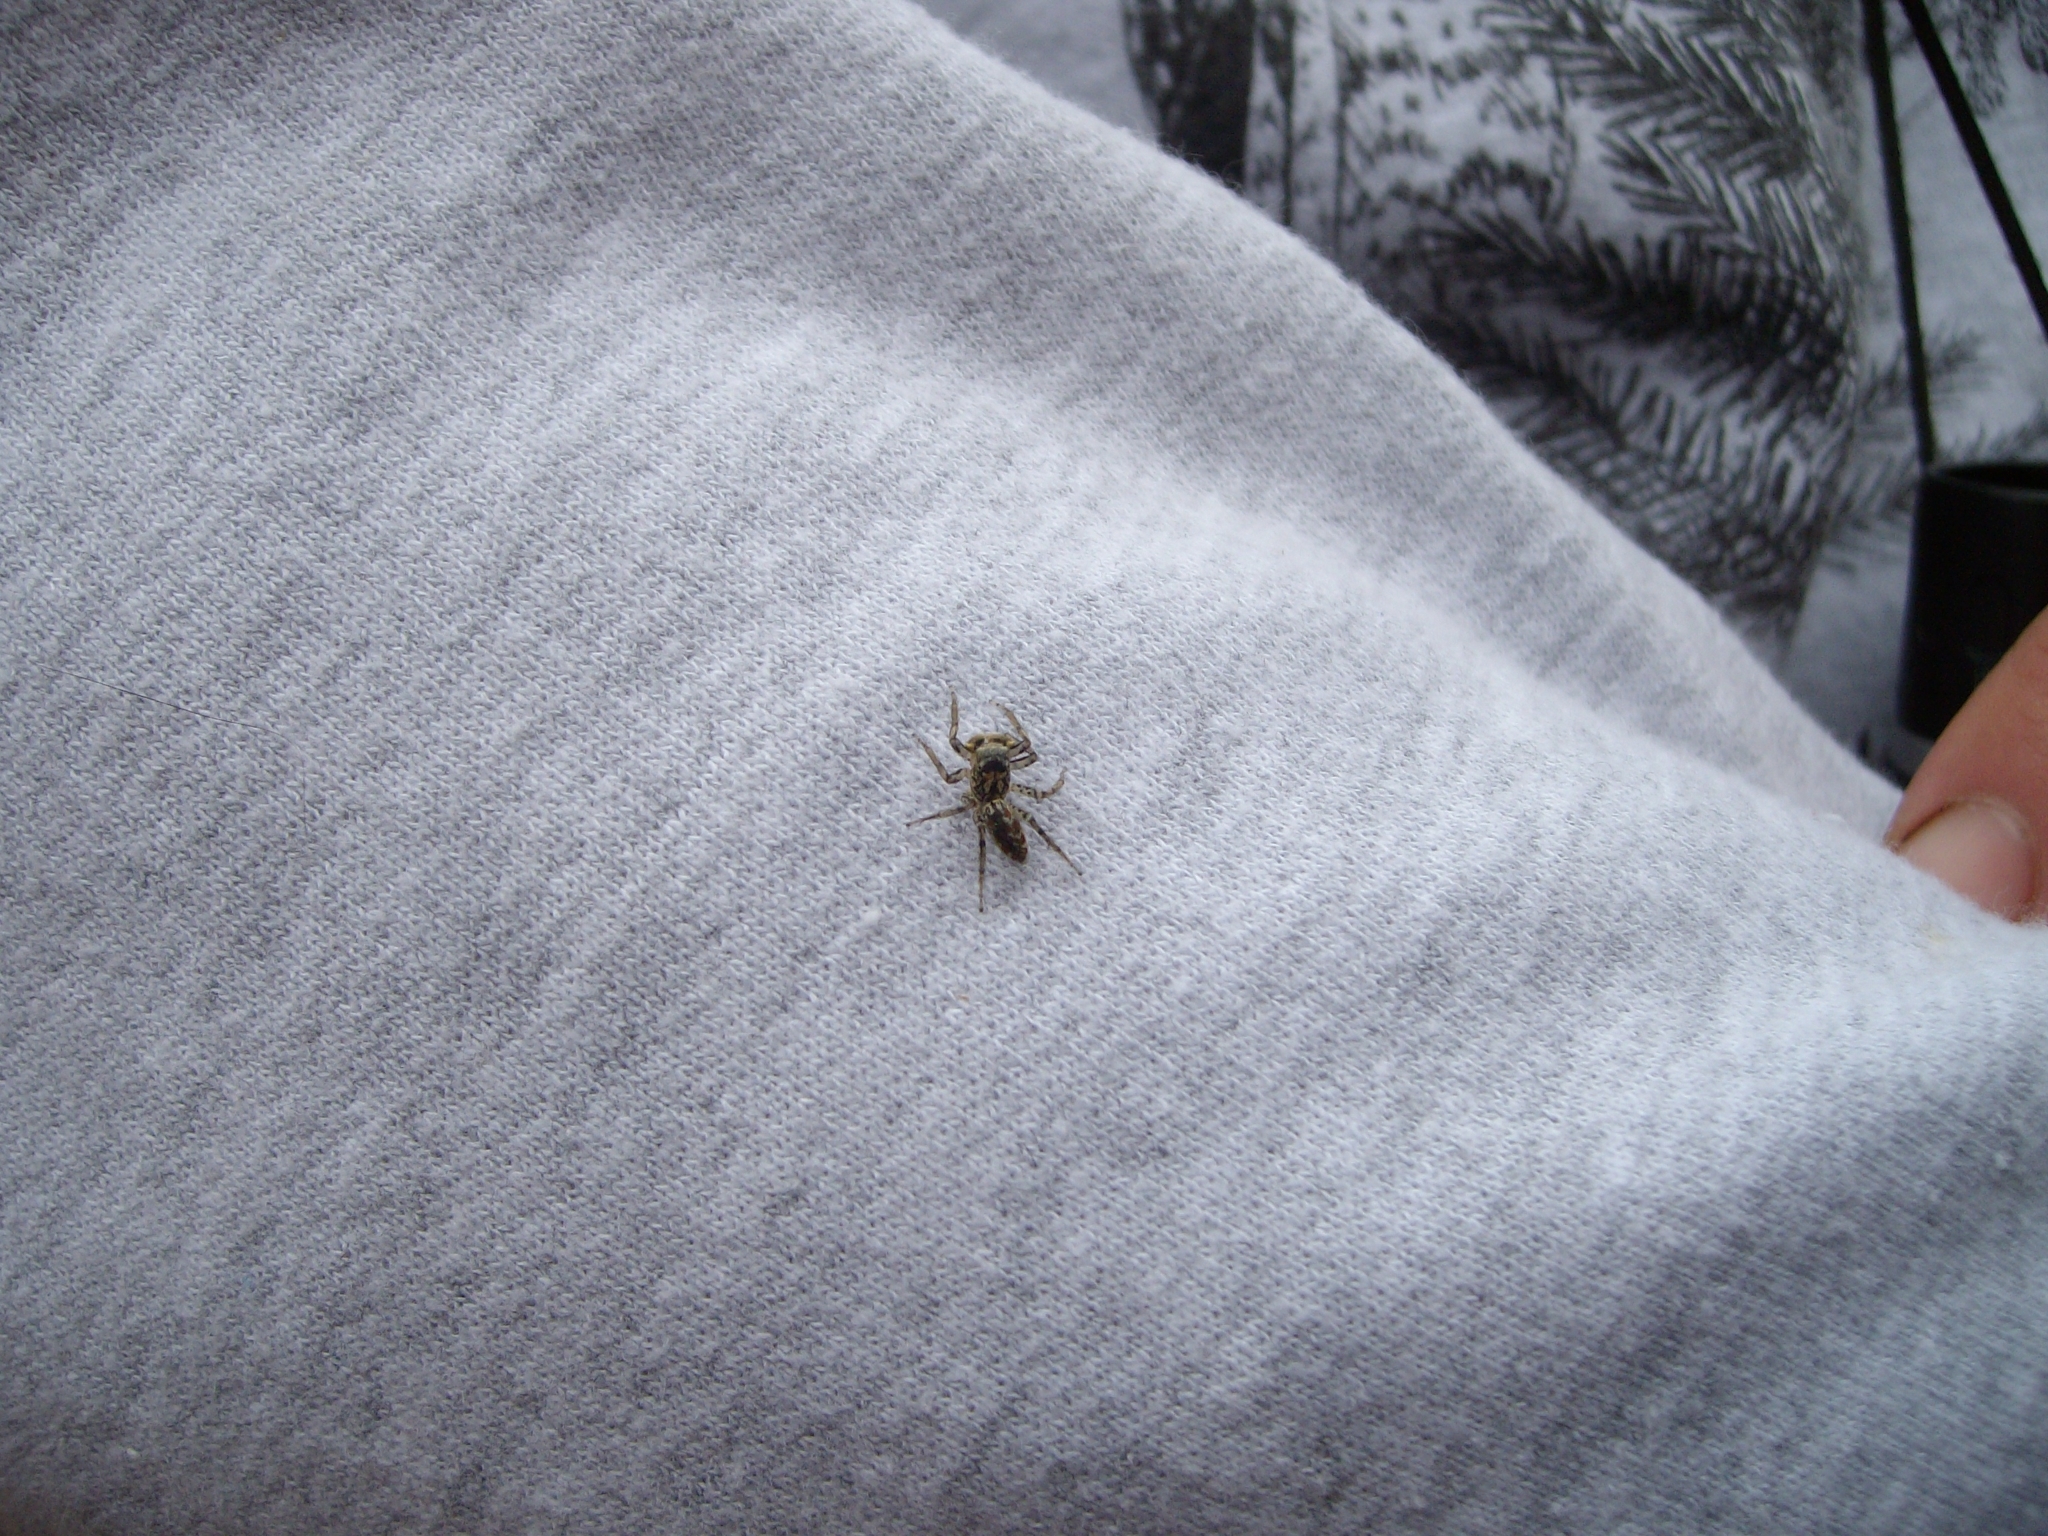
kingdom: Animalia
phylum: Arthropoda
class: Arachnida
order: Araneae
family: Salticidae
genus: Maevia
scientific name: Maevia inclemens
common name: Dimorphic jumper
